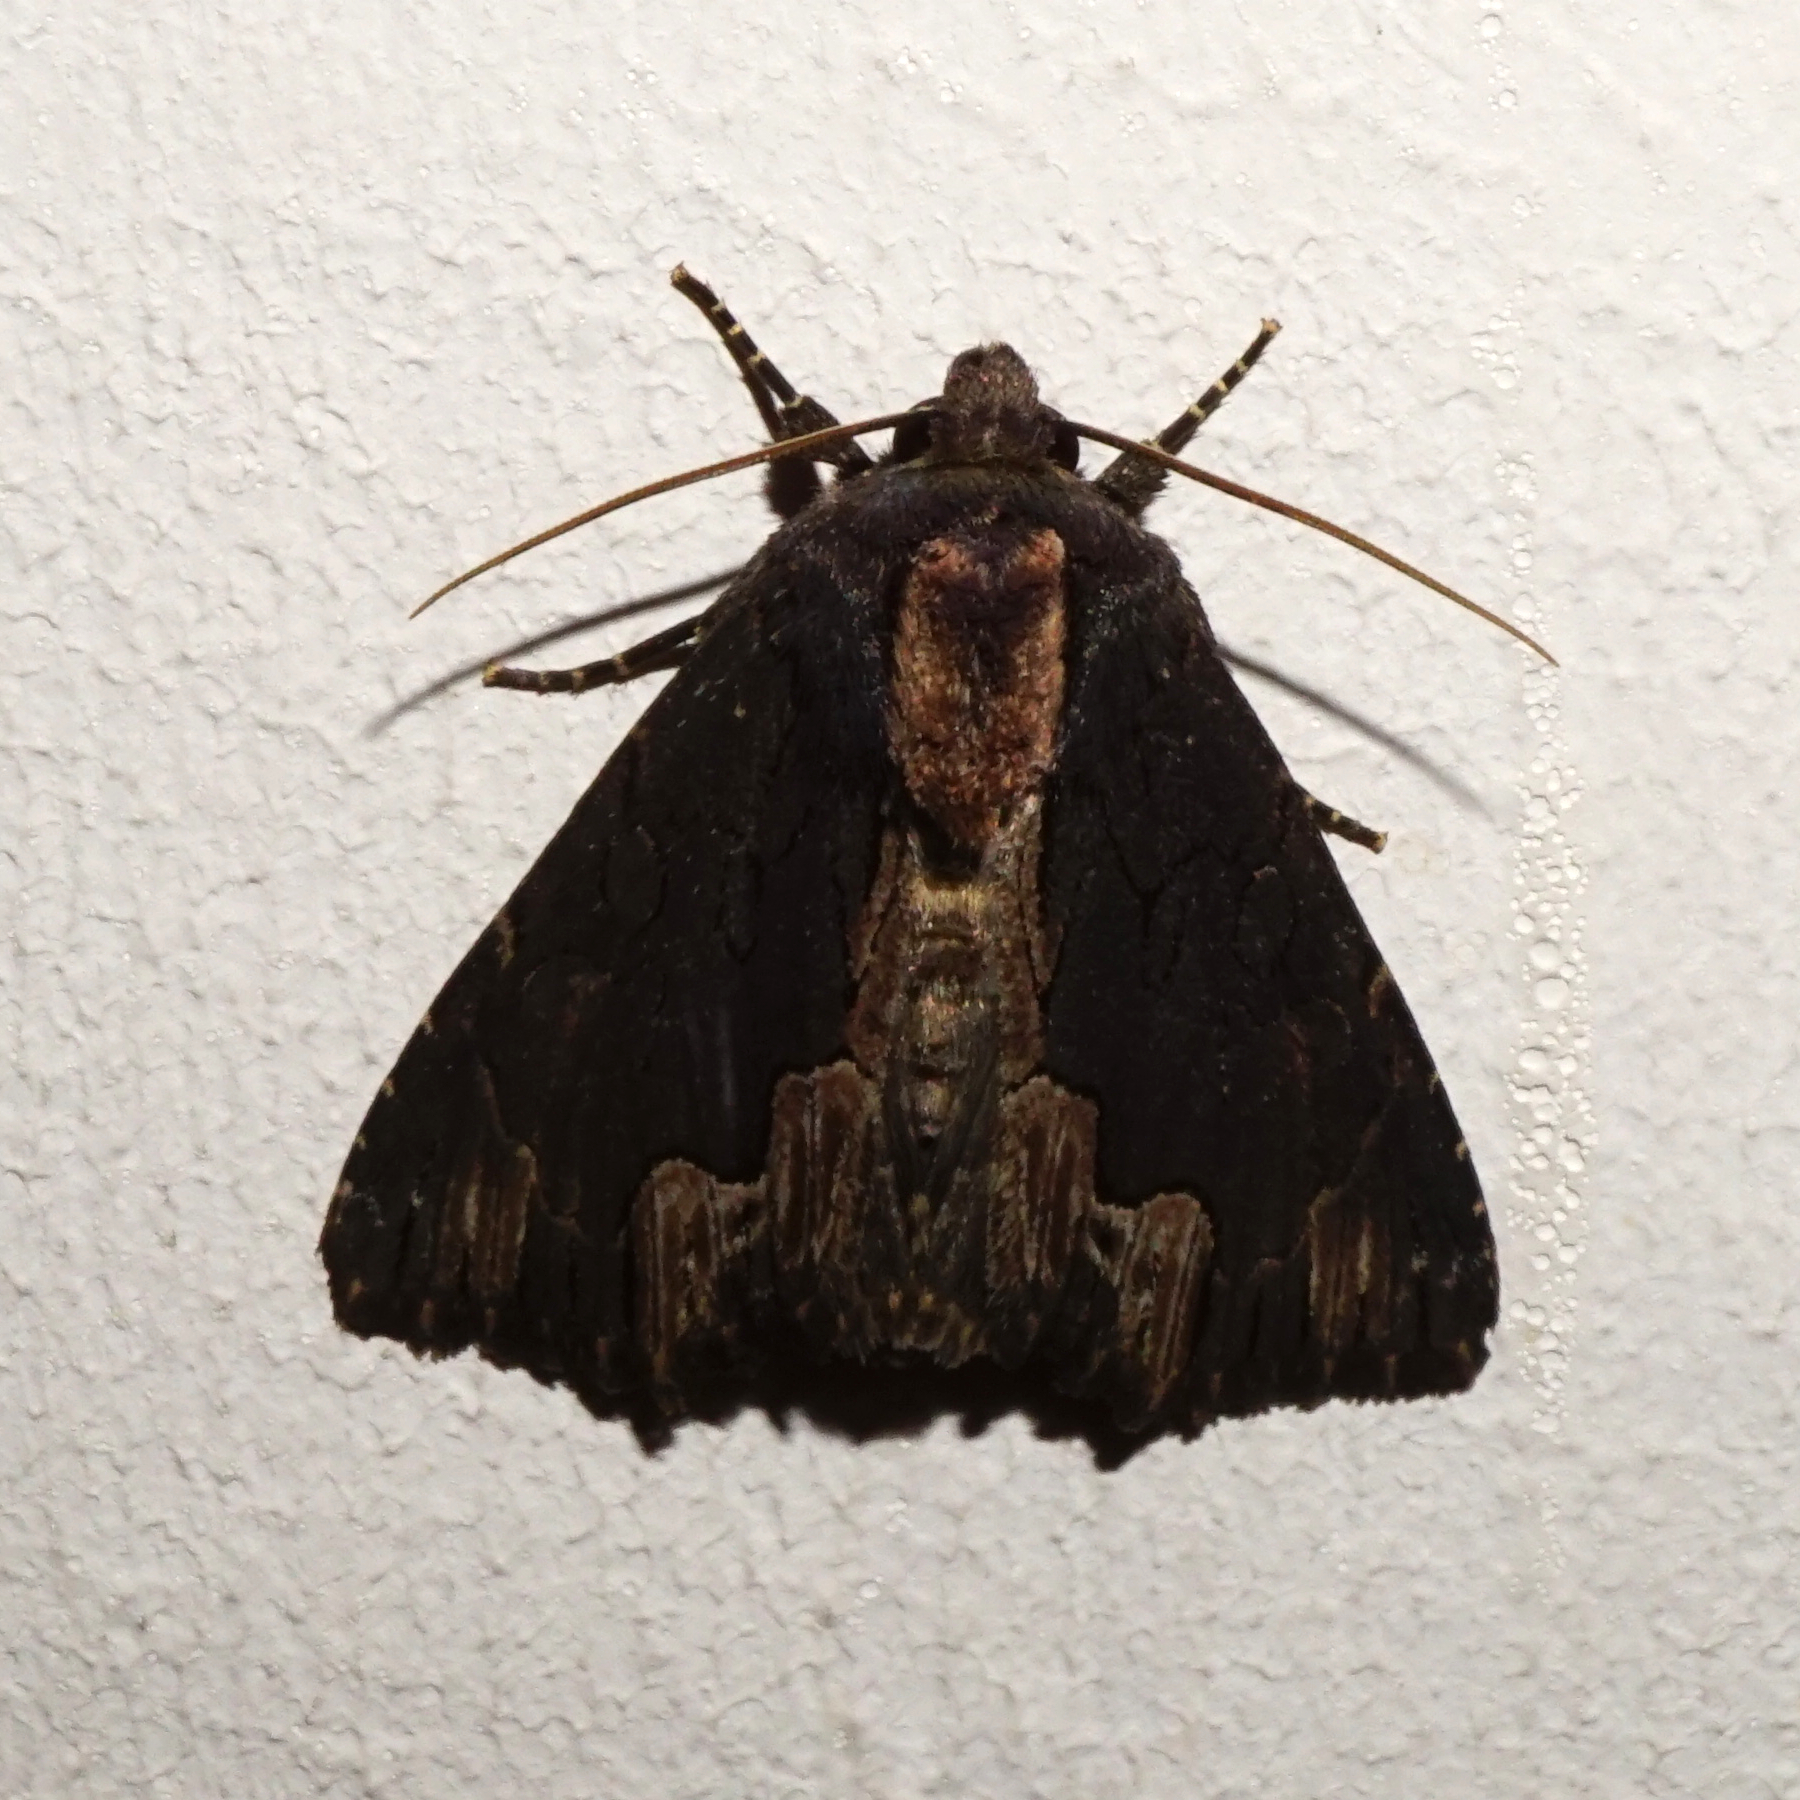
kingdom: Animalia
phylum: Arthropoda
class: Insecta
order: Lepidoptera
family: Noctuidae
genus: Dypterygia
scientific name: Dypterygia scabriuscula
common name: Bird's wing
